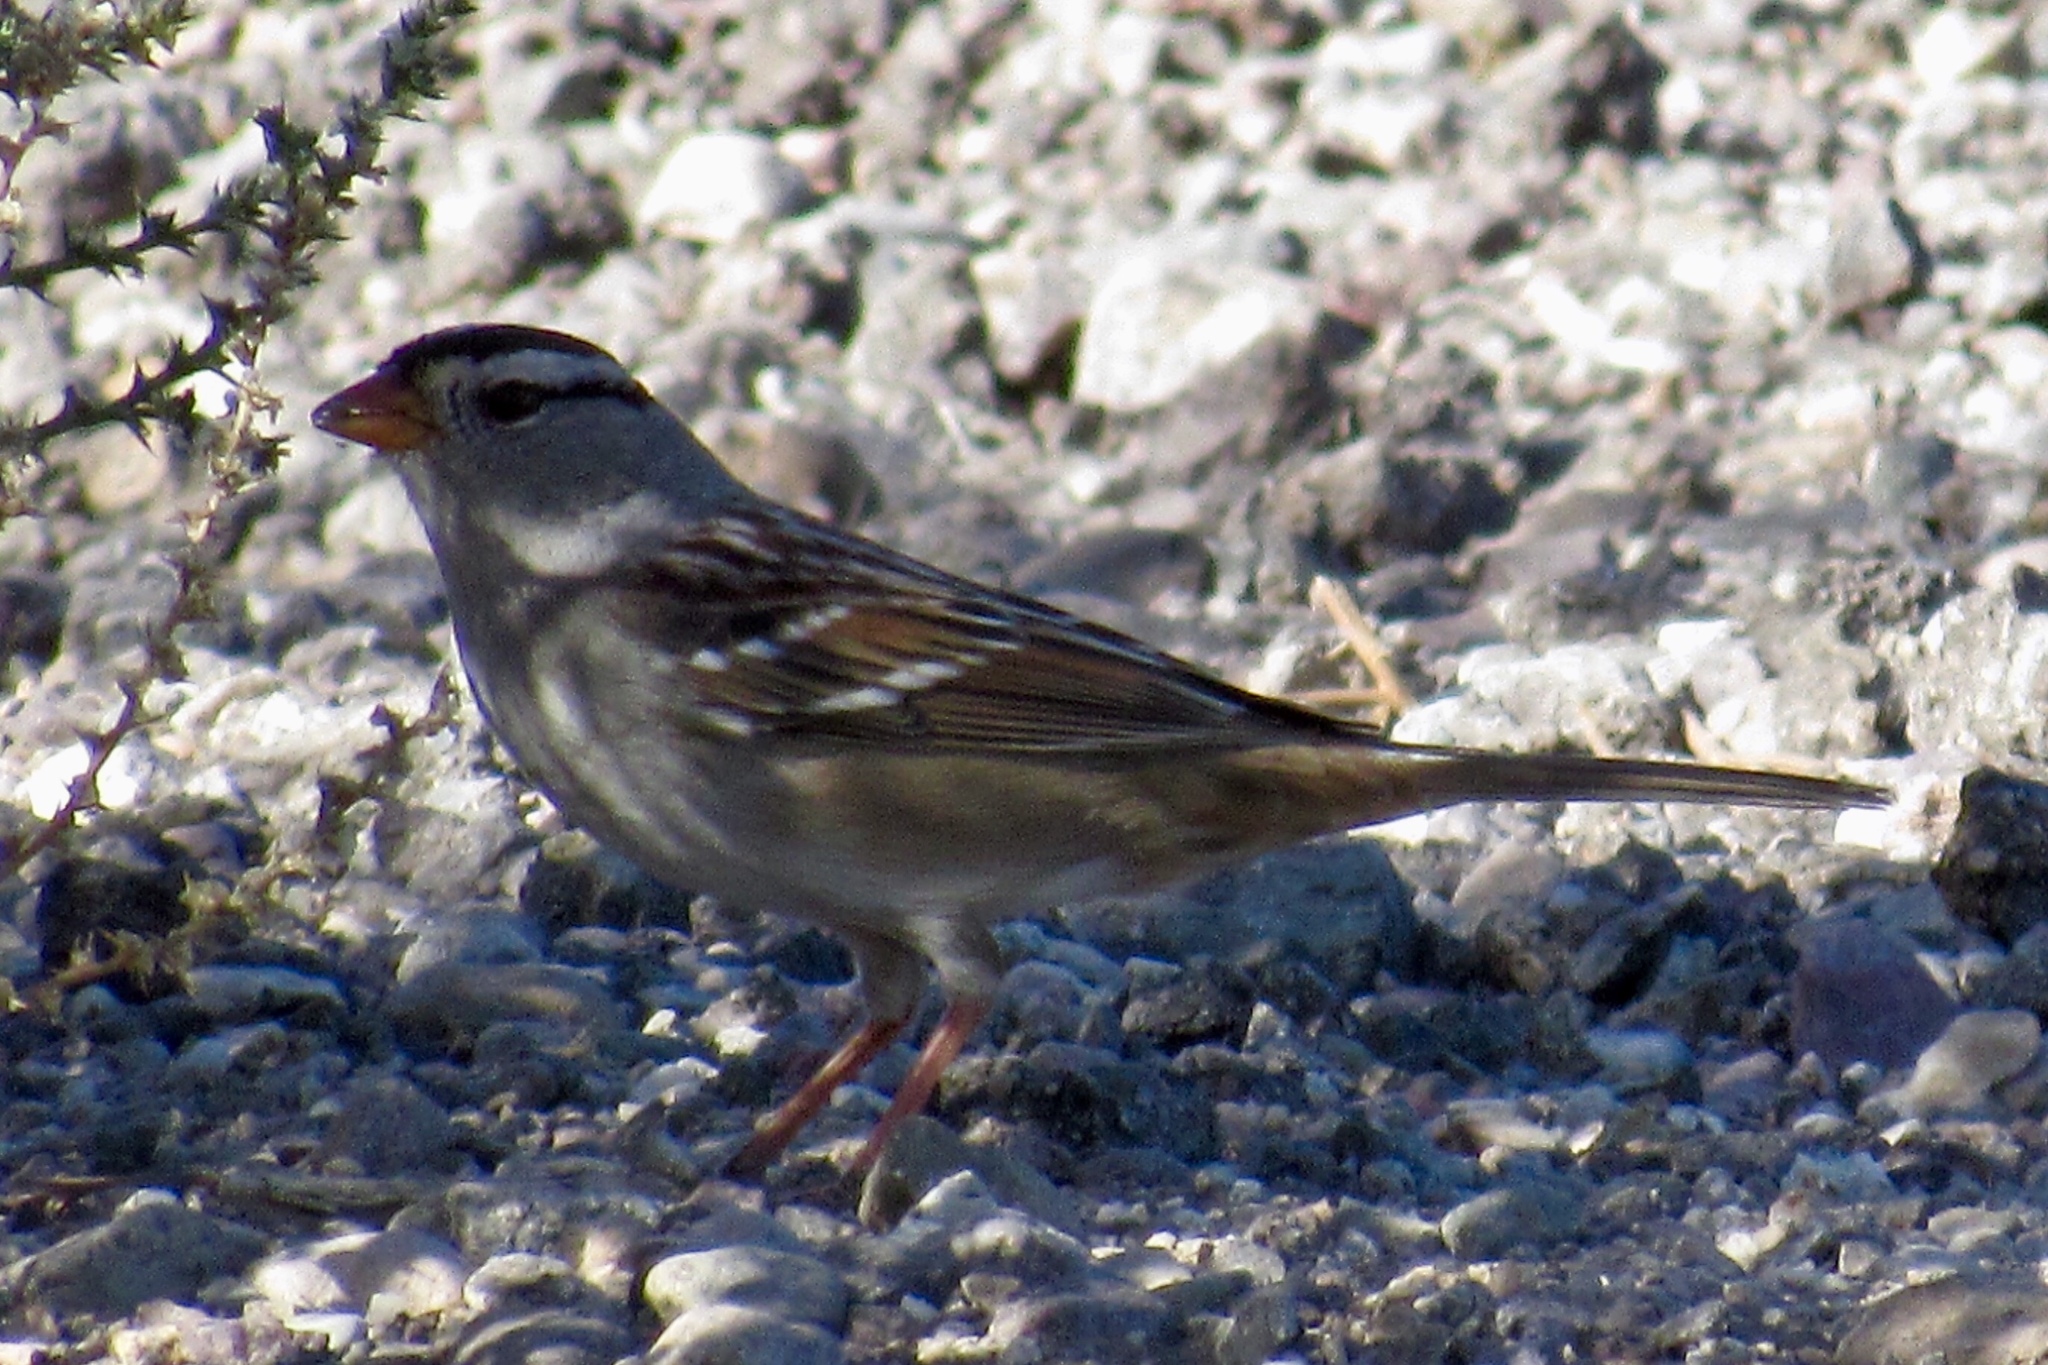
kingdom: Animalia
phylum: Chordata
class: Aves
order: Passeriformes
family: Passerellidae
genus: Zonotrichia
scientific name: Zonotrichia leucophrys
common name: White-crowned sparrow
